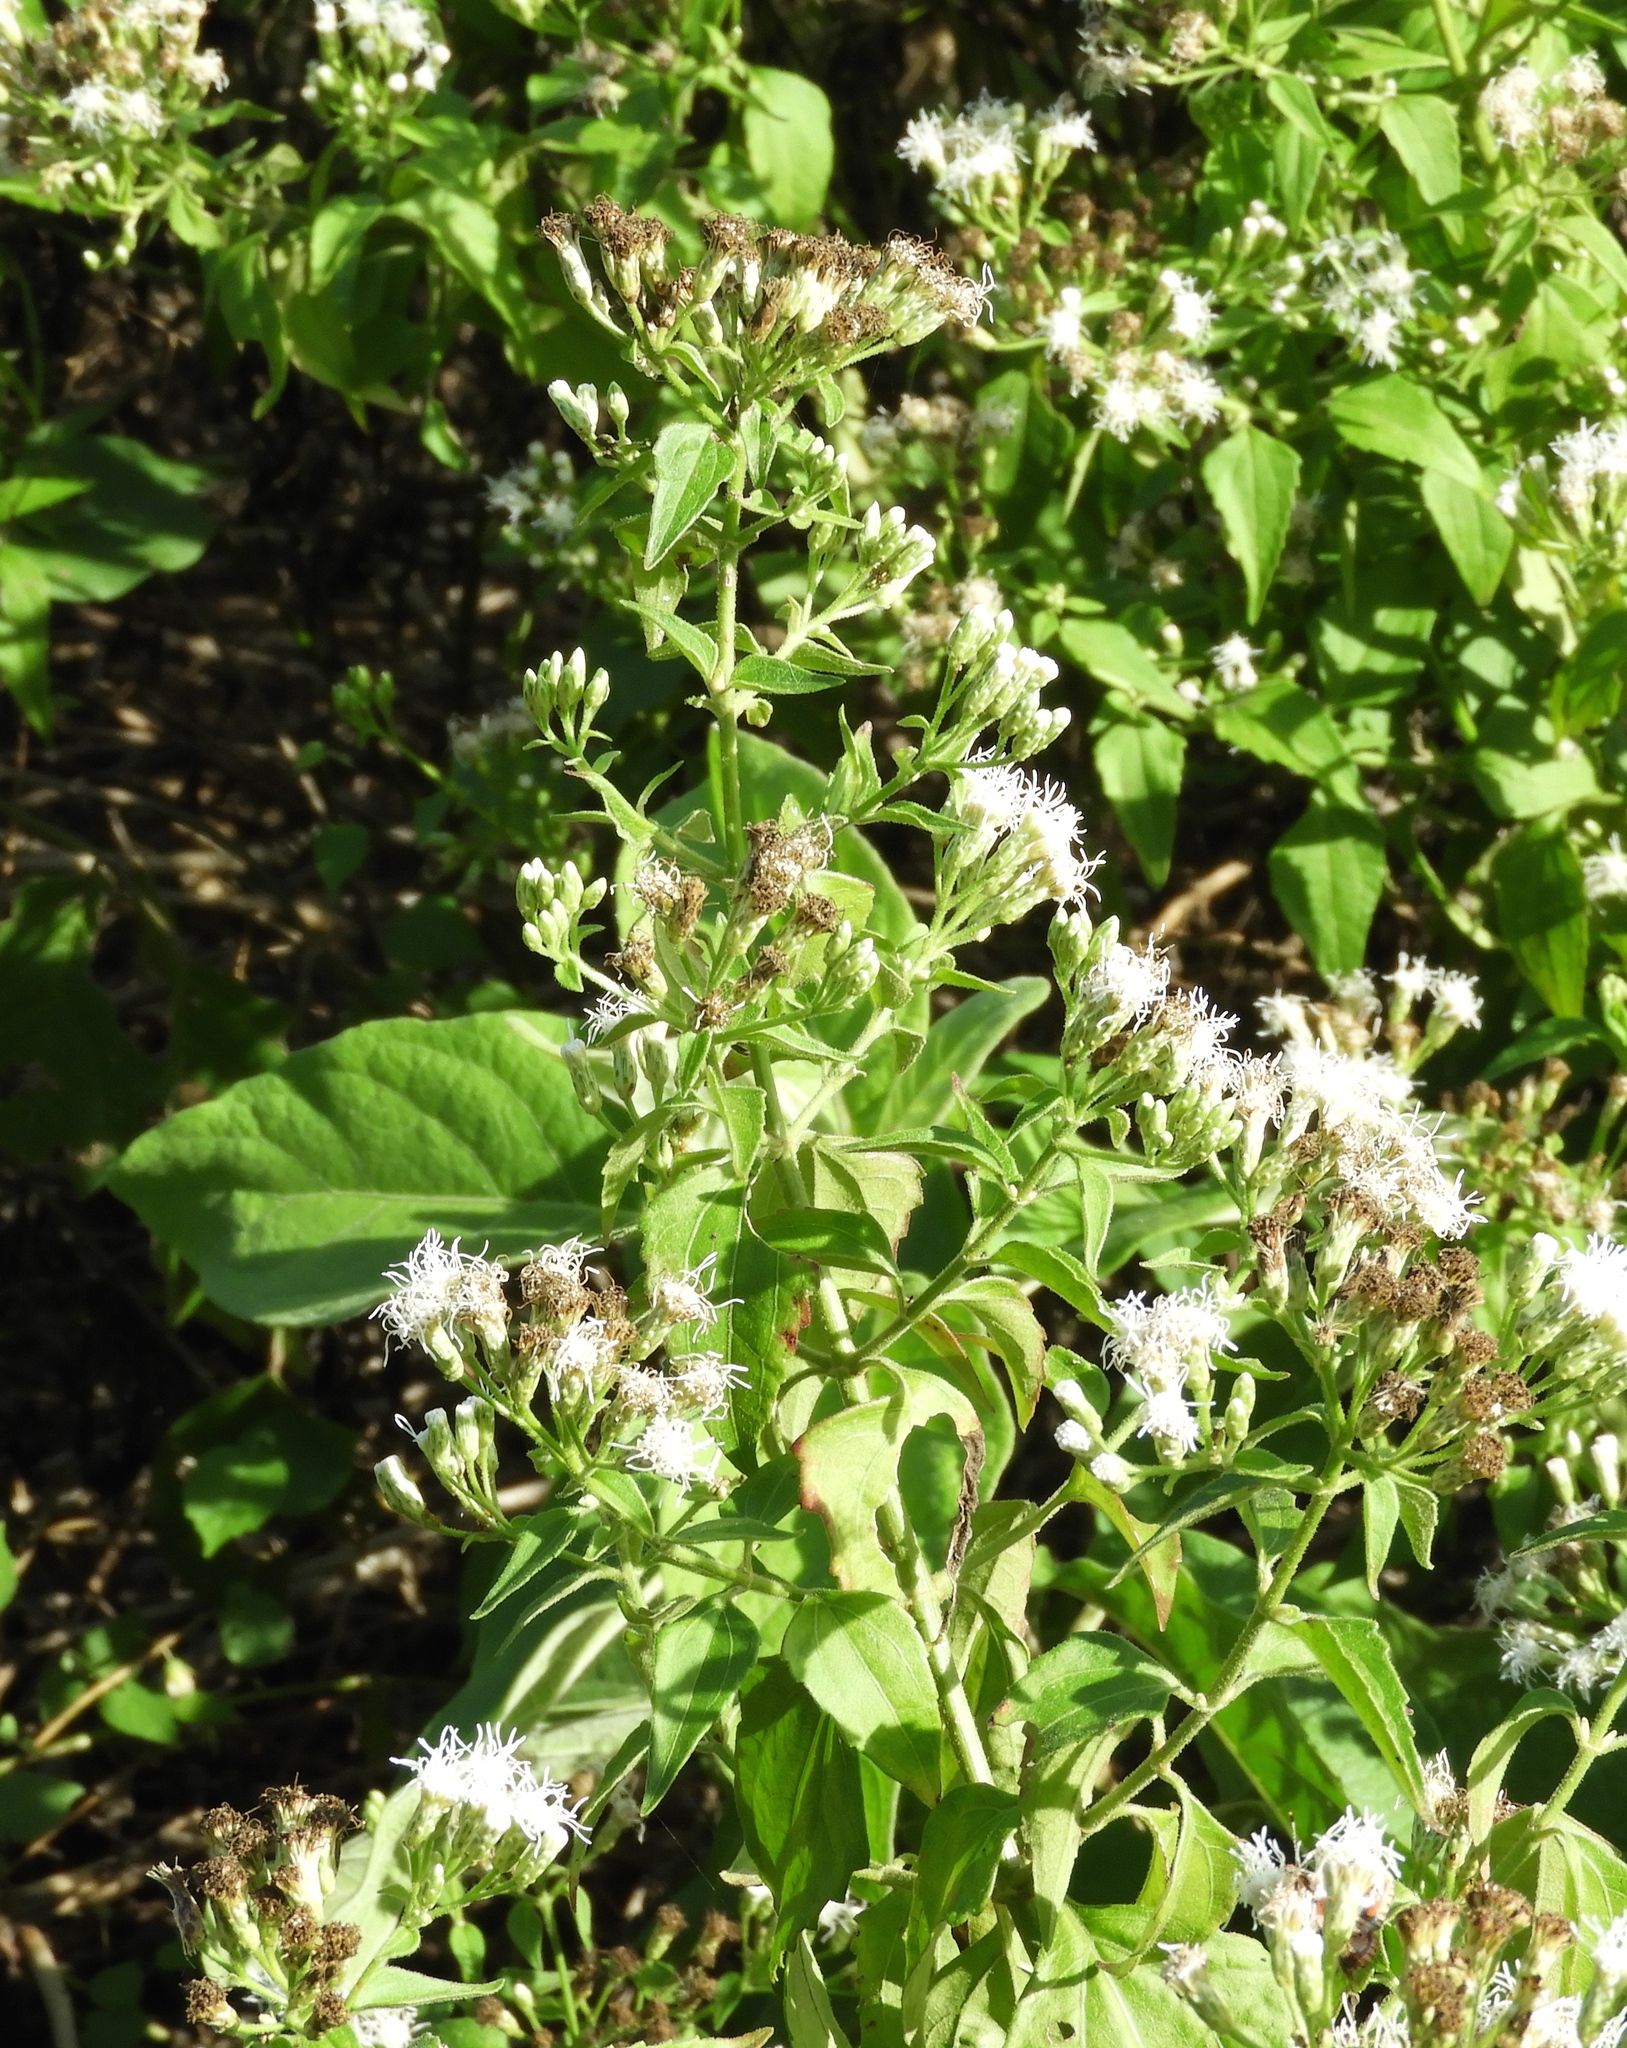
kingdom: Plantae
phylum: Tracheophyta
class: Magnoliopsida
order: Asterales
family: Asteraceae
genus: Chromolaena
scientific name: Chromolaena odorata
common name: Siamweed
